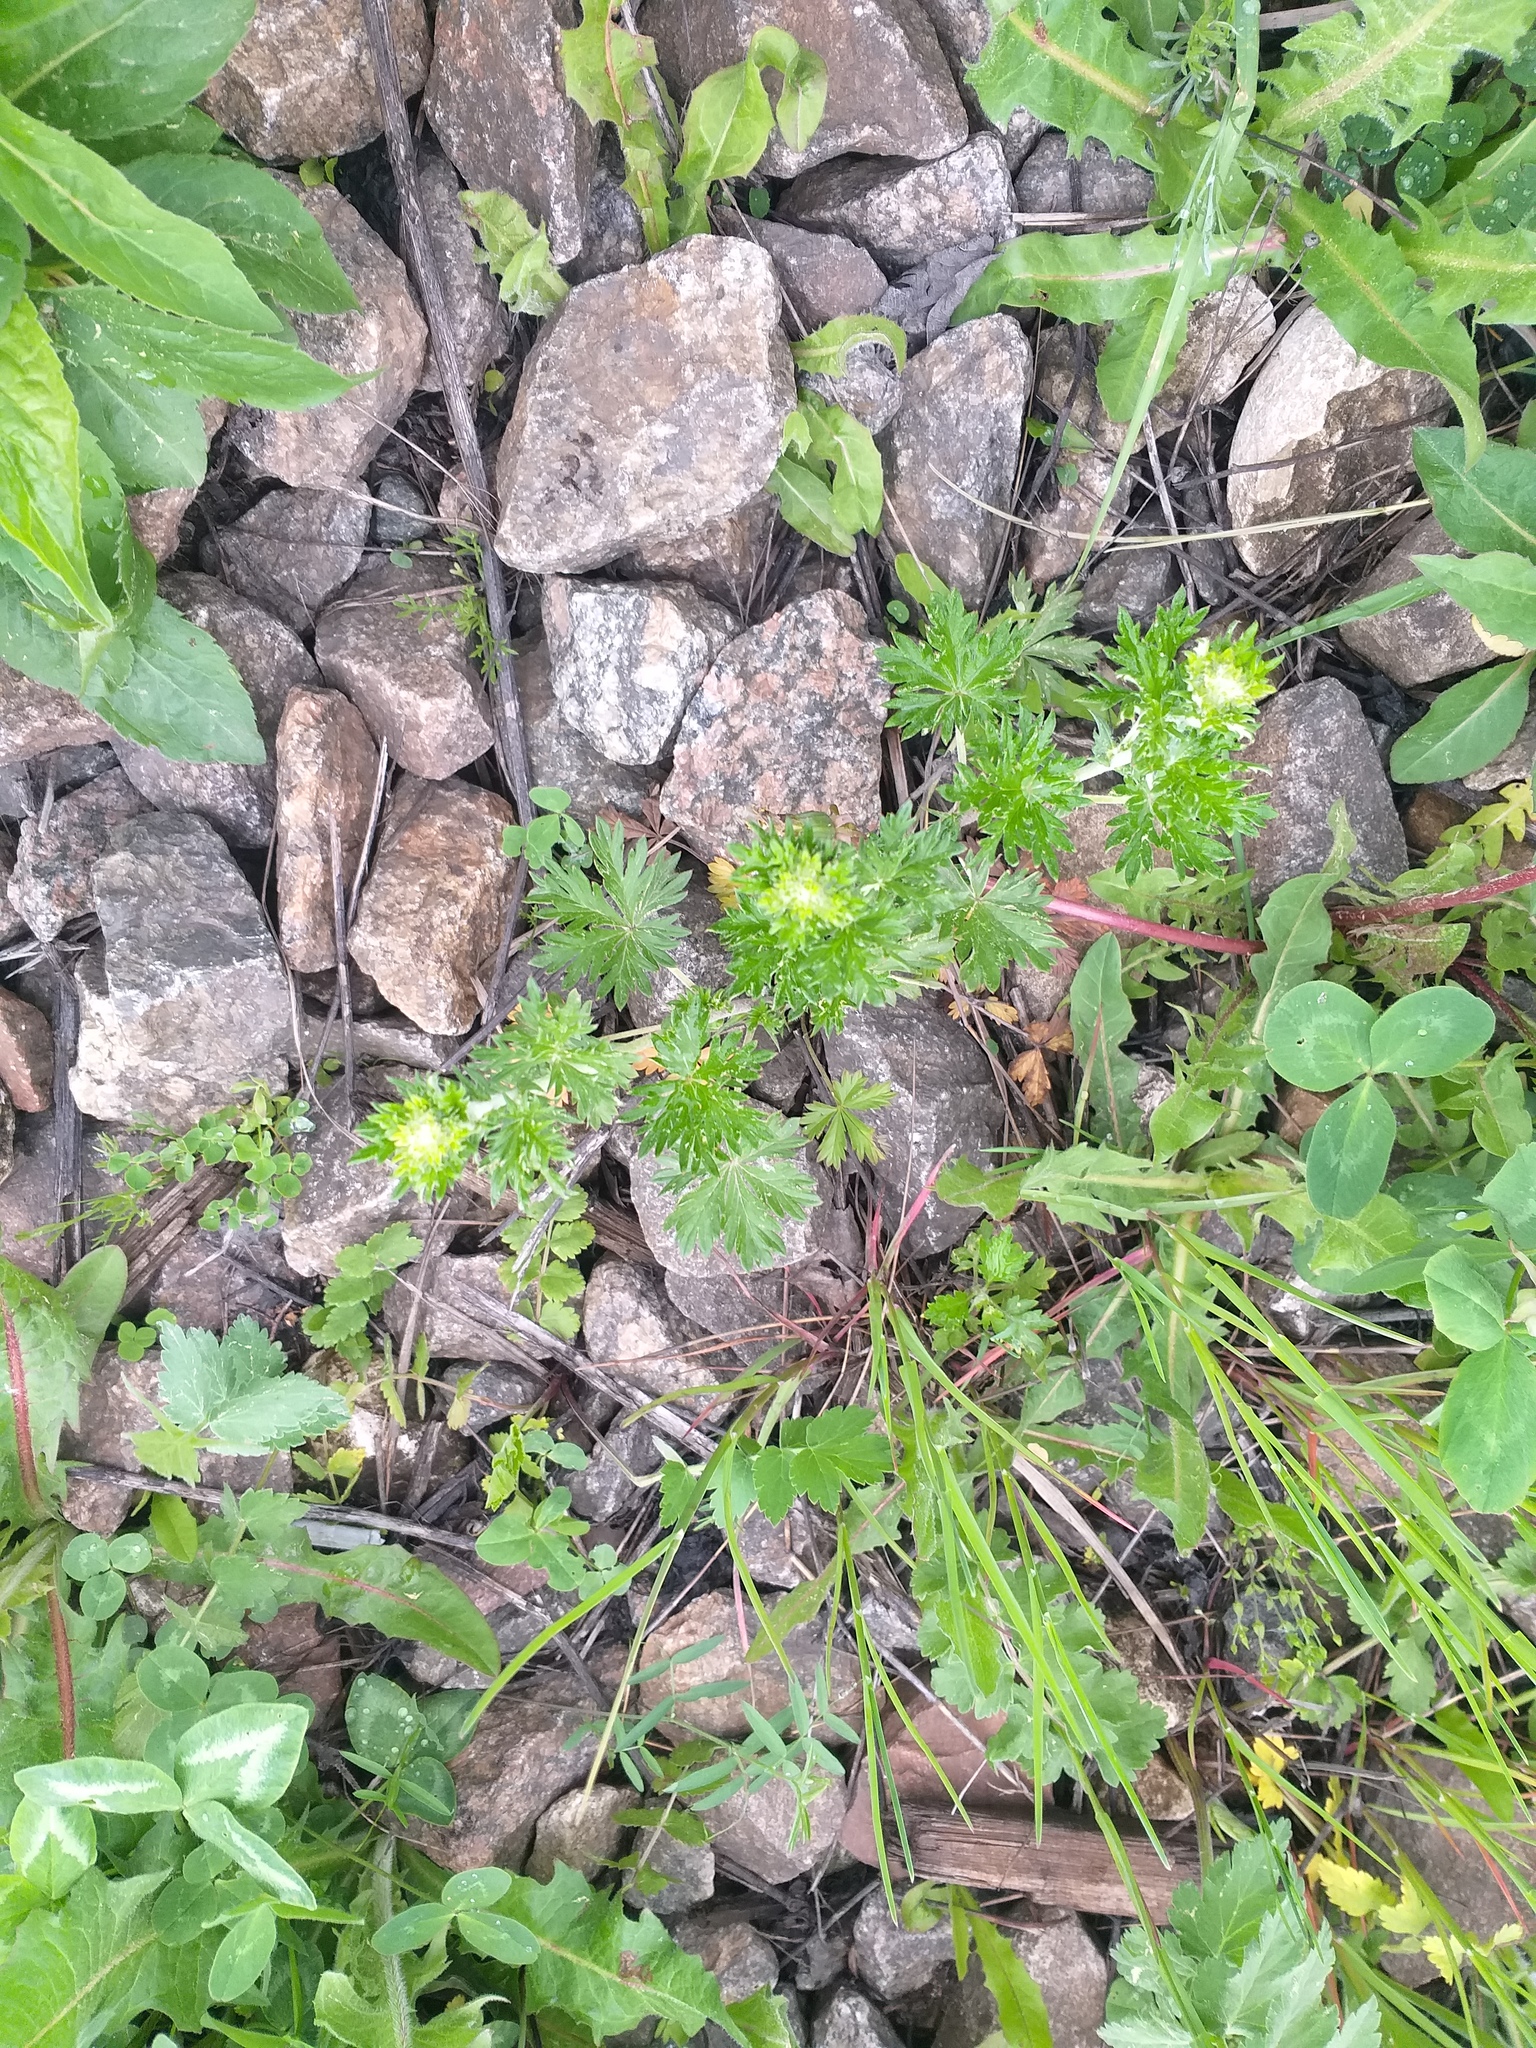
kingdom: Plantae
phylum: Tracheophyta
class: Magnoliopsida
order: Rosales
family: Rosaceae
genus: Potentilla
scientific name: Potentilla argentea
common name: Hoary cinquefoil
